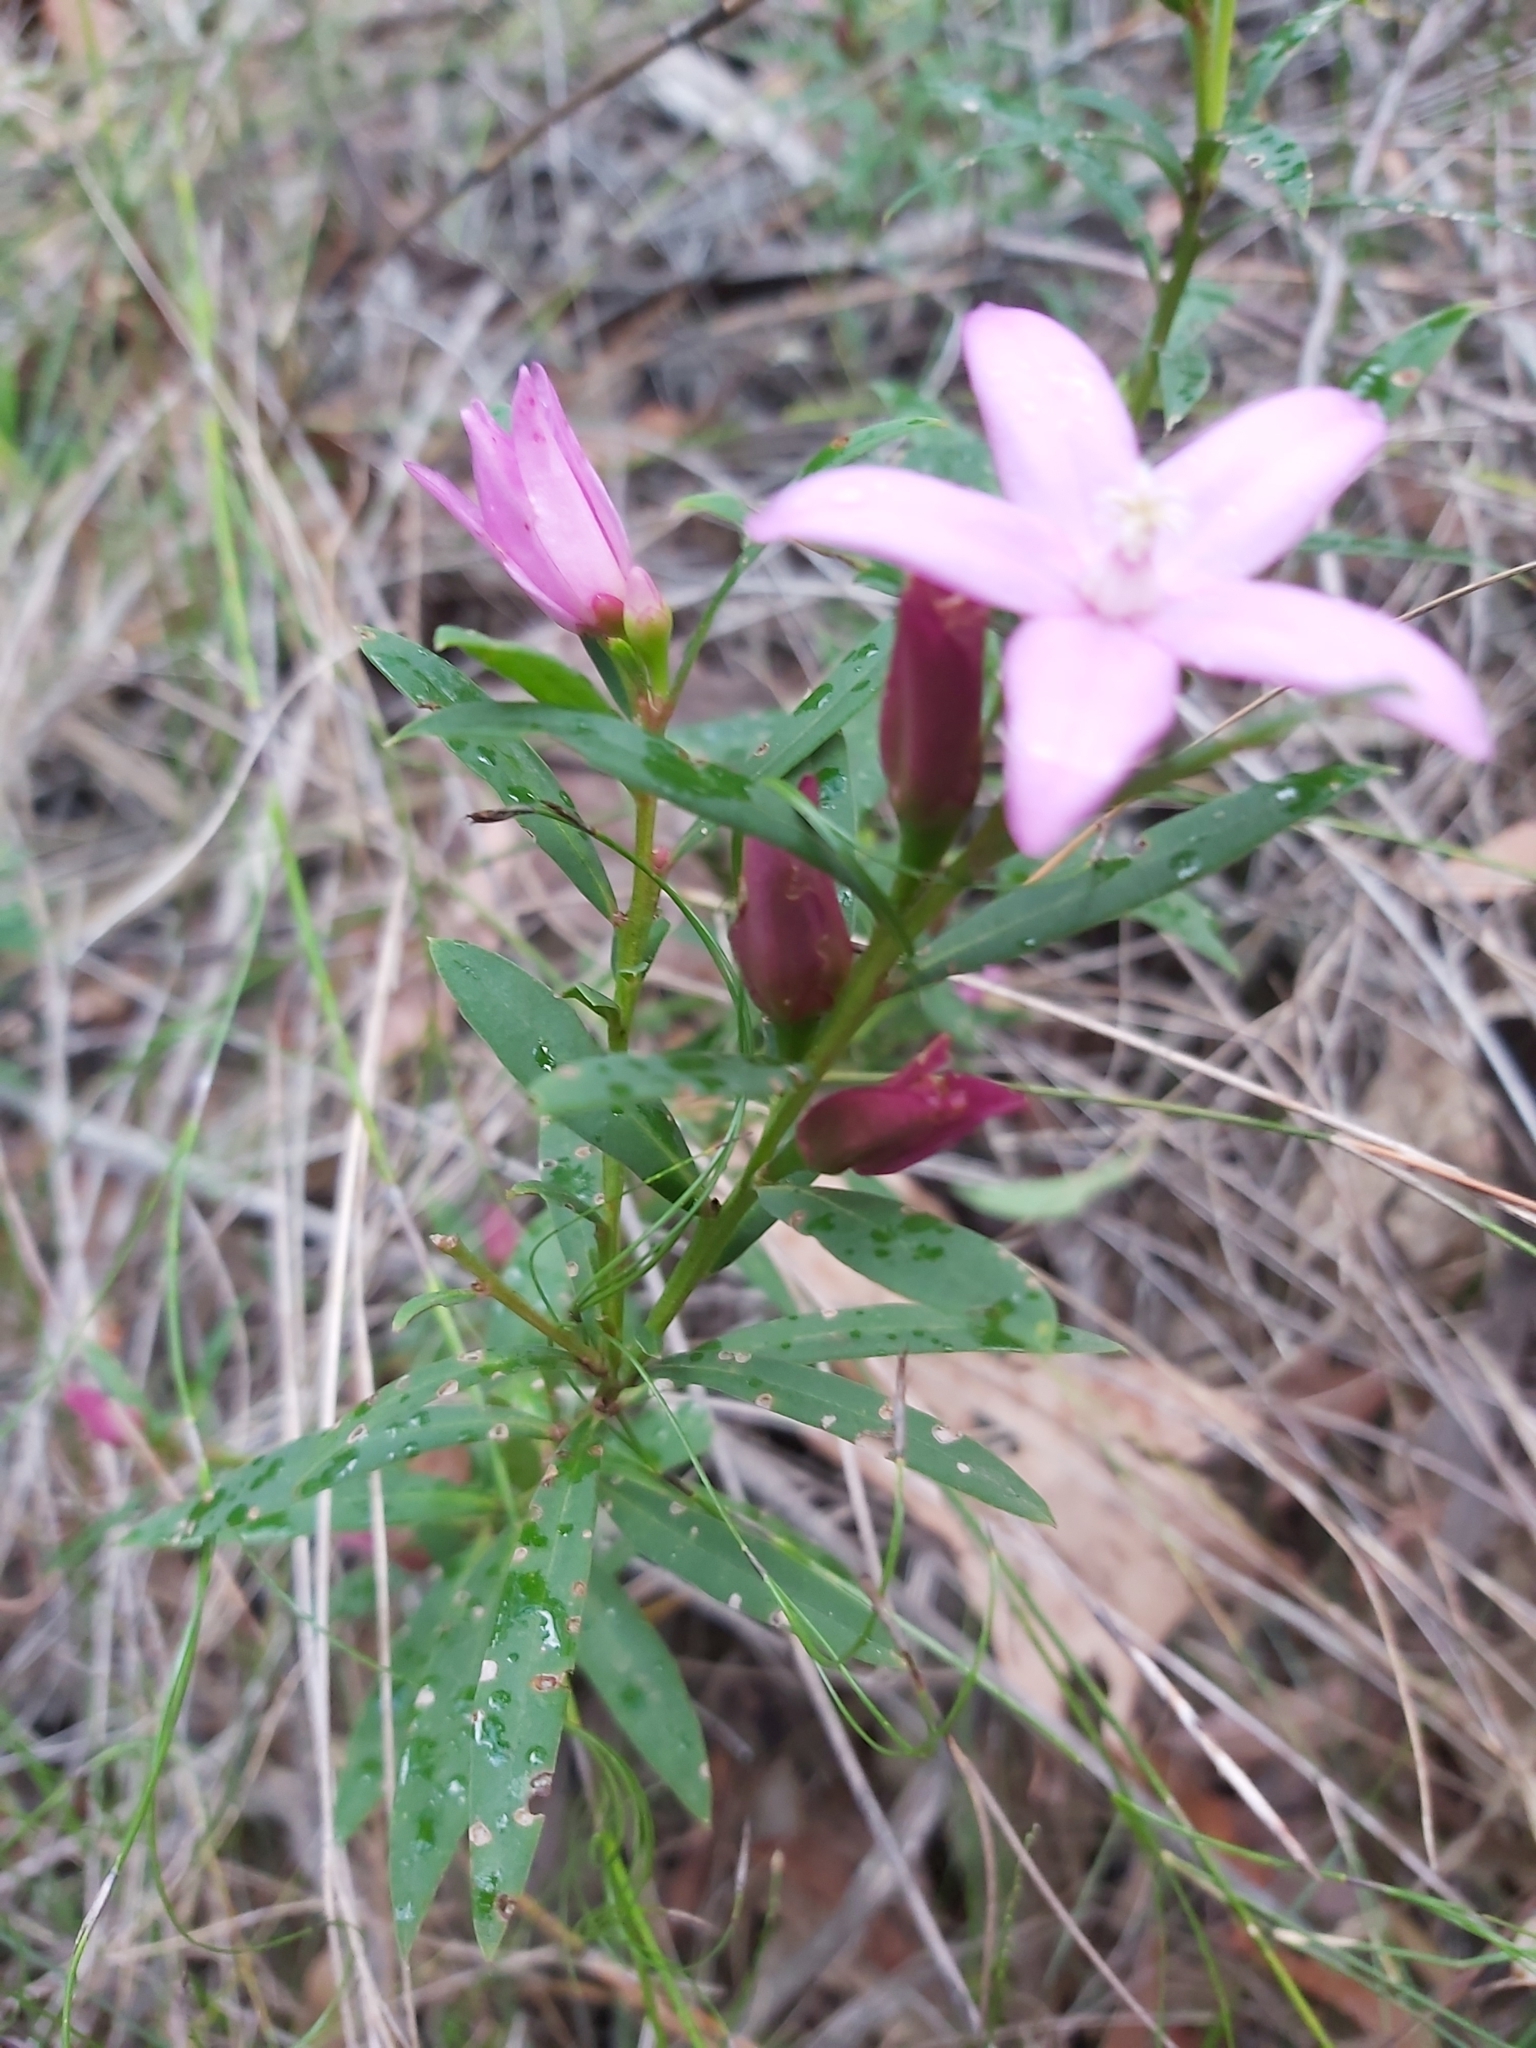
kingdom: Plantae
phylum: Tracheophyta
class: Magnoliopsida
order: Sapindales
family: Rutaceae
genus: Crowea
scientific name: Crowea saligna
